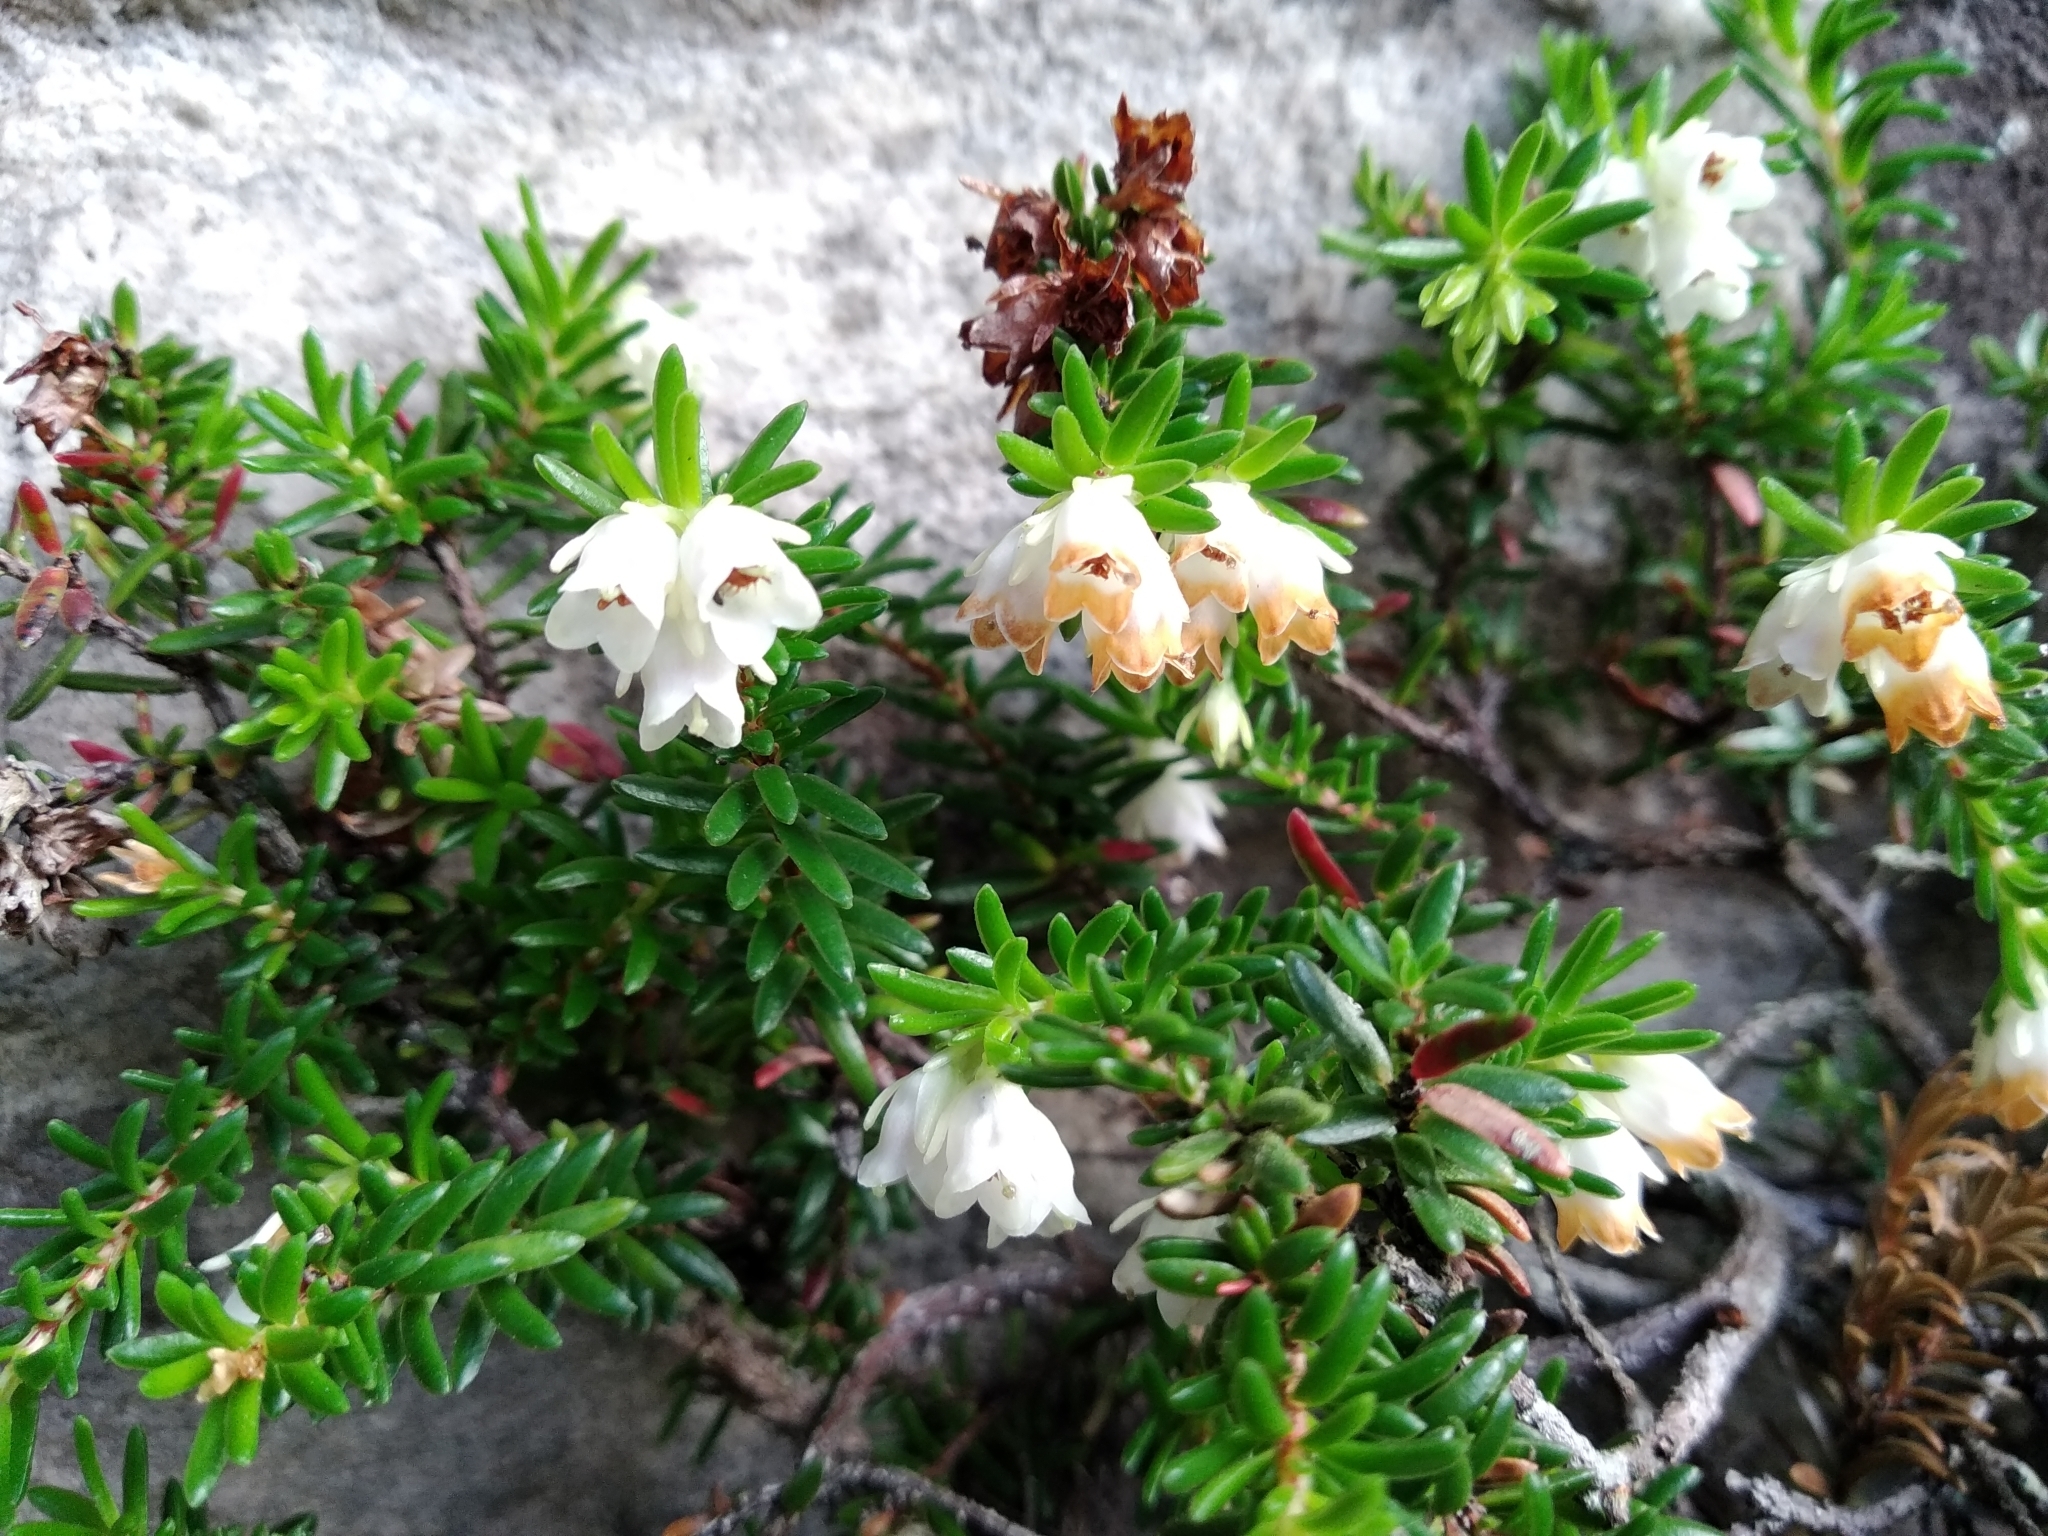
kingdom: Plantae
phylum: Tracheophyta
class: Magnoliopsida
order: Ericales
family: Ericaceae
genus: Erica
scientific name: Erica depressa
